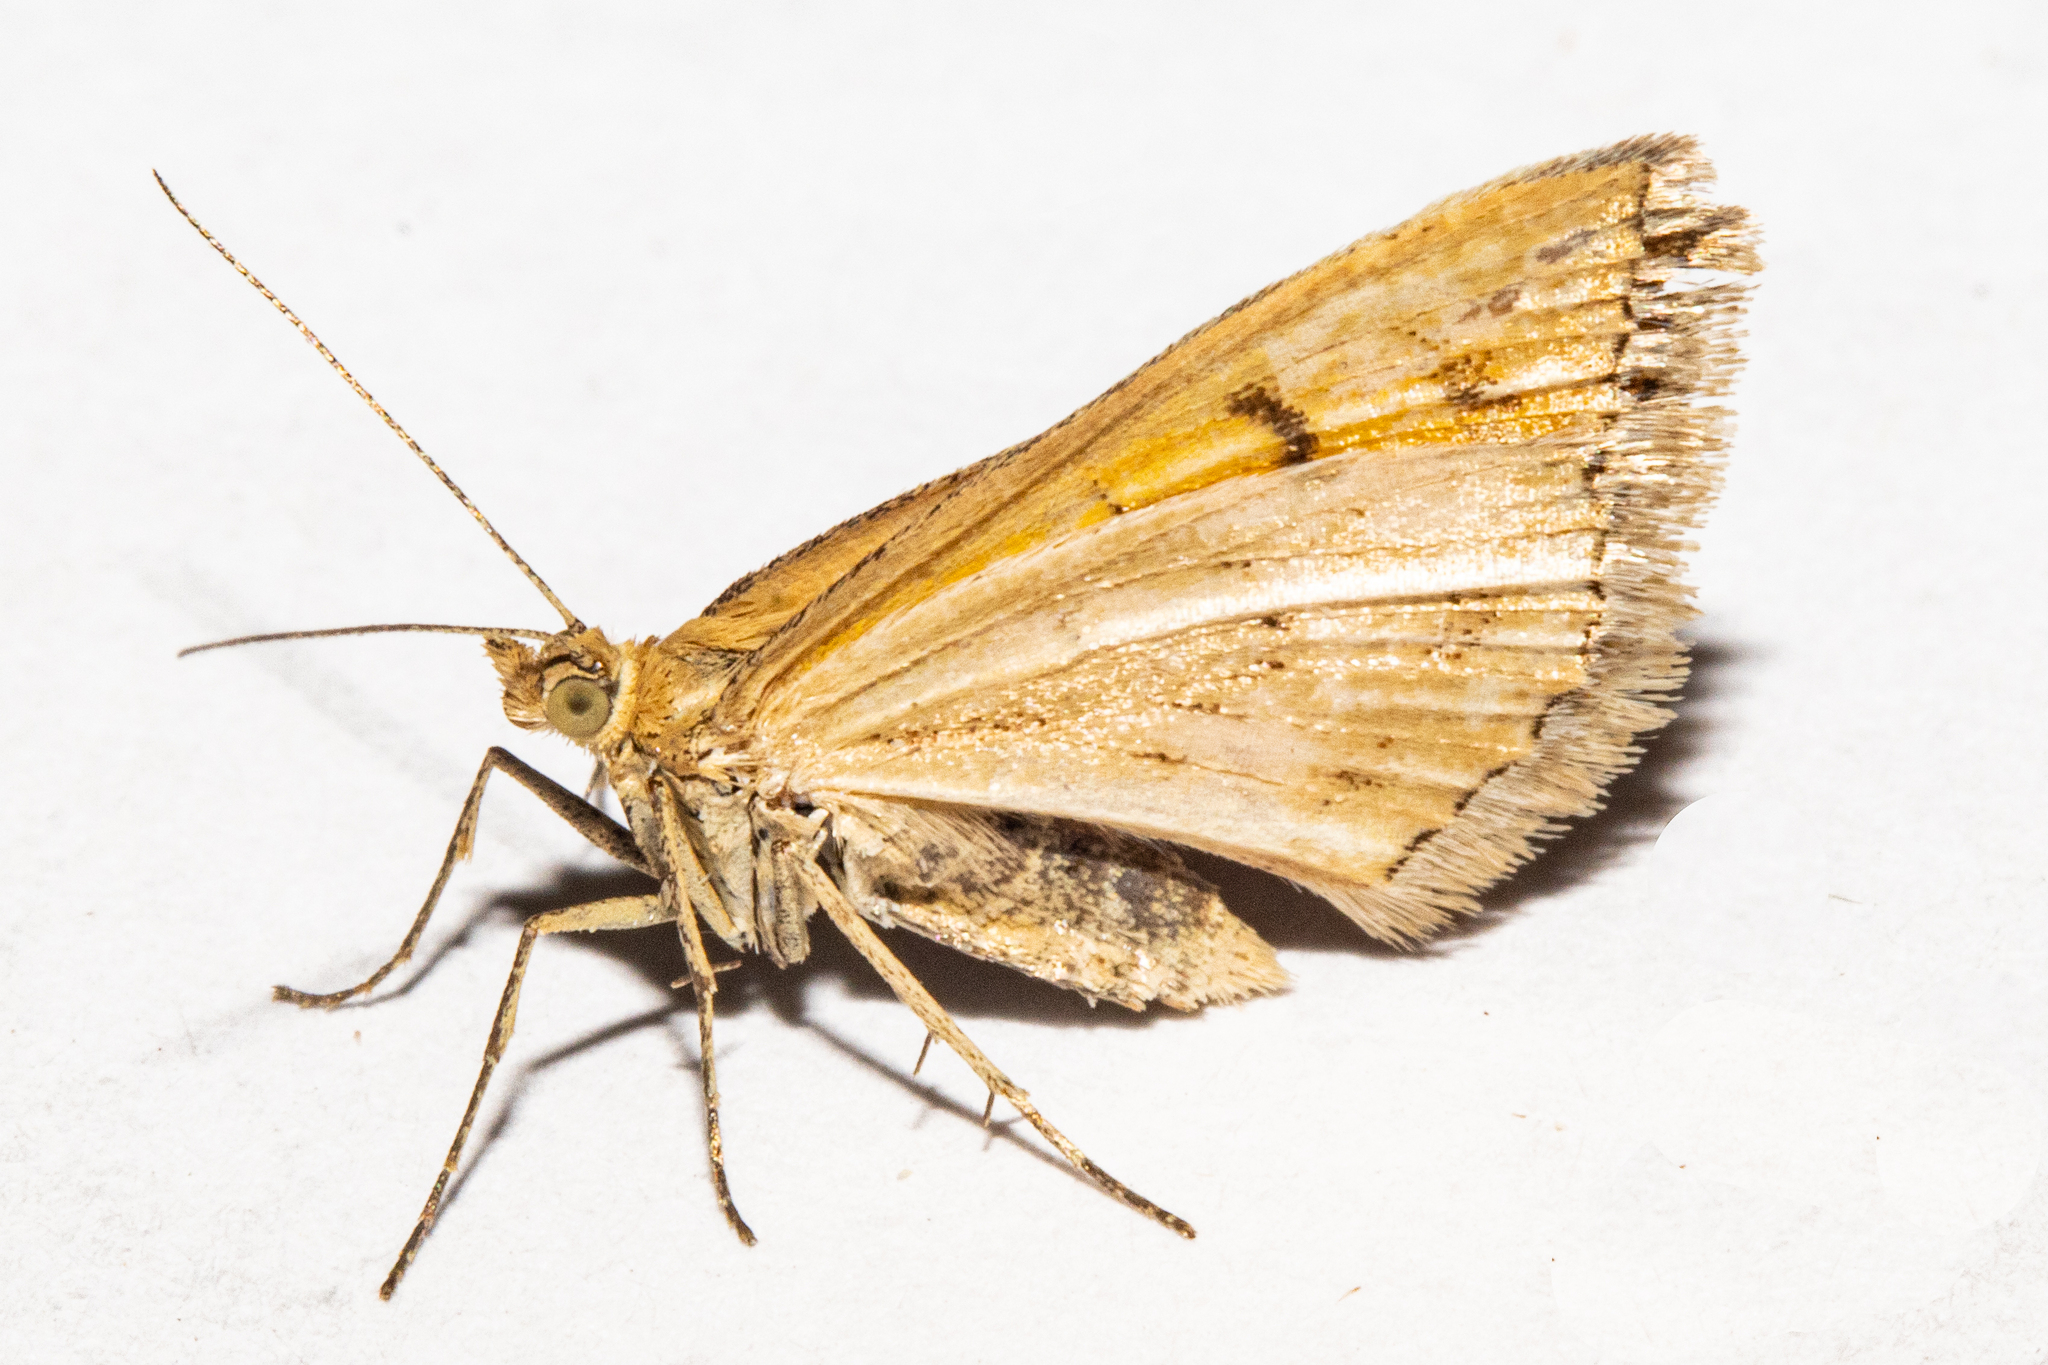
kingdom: Animalia
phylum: Arthropoda
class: Insecta
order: Lepidoptera
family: Geometridae
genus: Asaphodes
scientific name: Asaphodes abrogata
